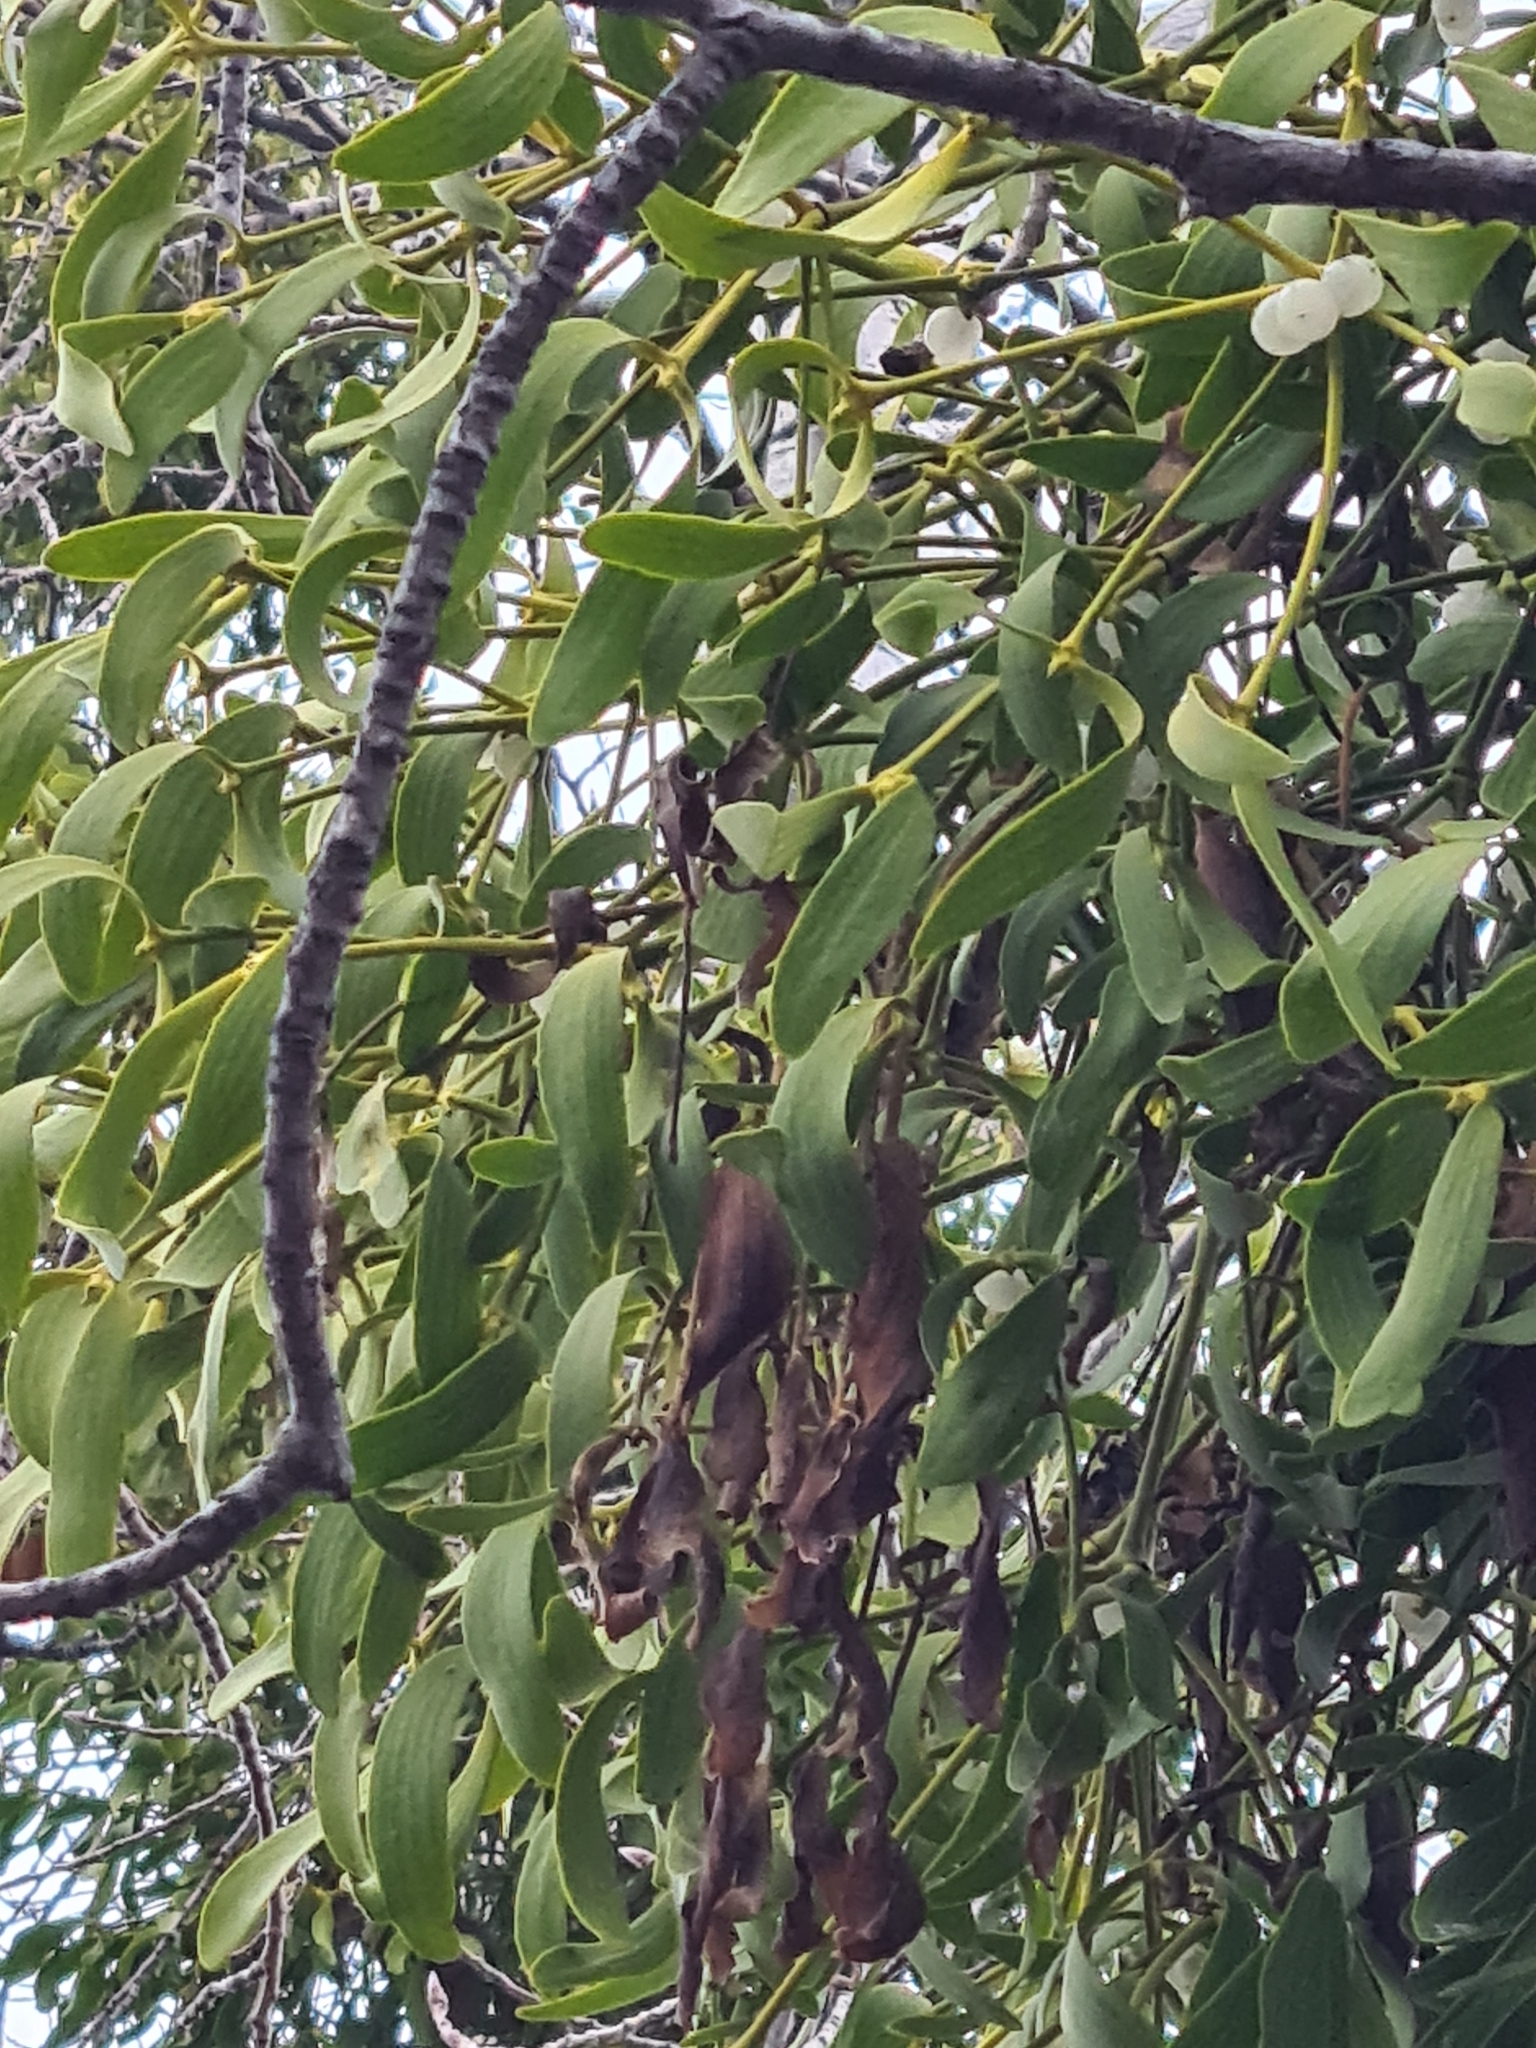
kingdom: Plantae
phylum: Tracheophyta
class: Magnoliopsida
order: Santalales
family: Viscaceae
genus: Viscum
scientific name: Viscum album
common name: Mistletoe
